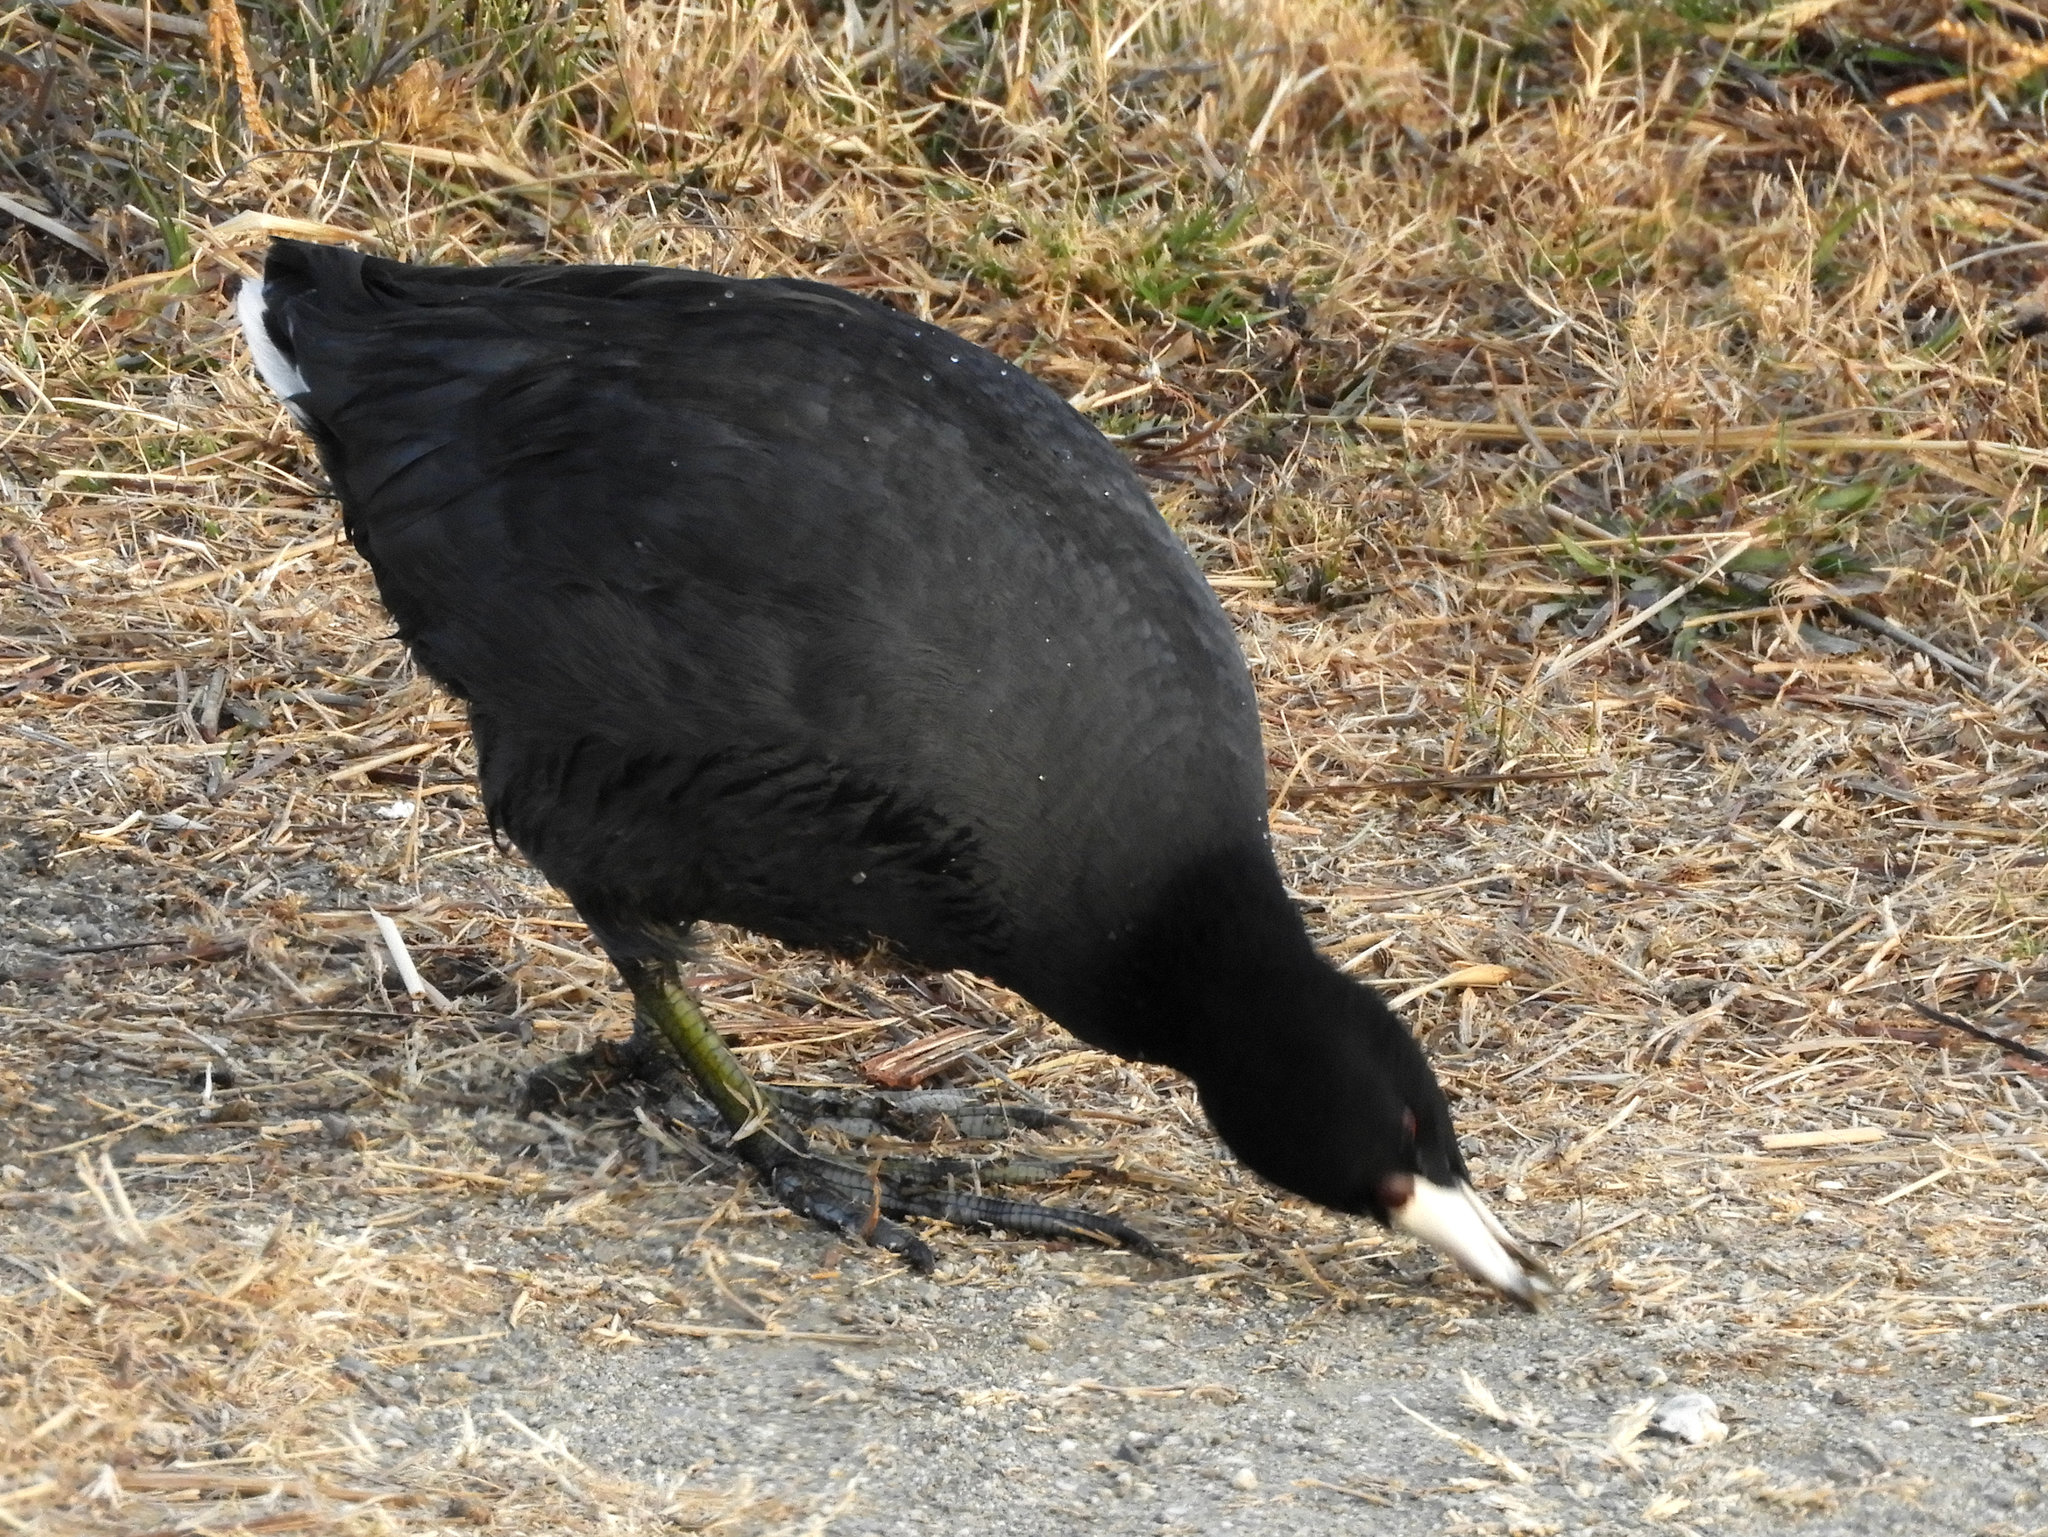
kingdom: Animalia
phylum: Chordata
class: Aves
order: Gruiformes
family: Rallidae
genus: Fulica
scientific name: Fulica americana
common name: American coot
